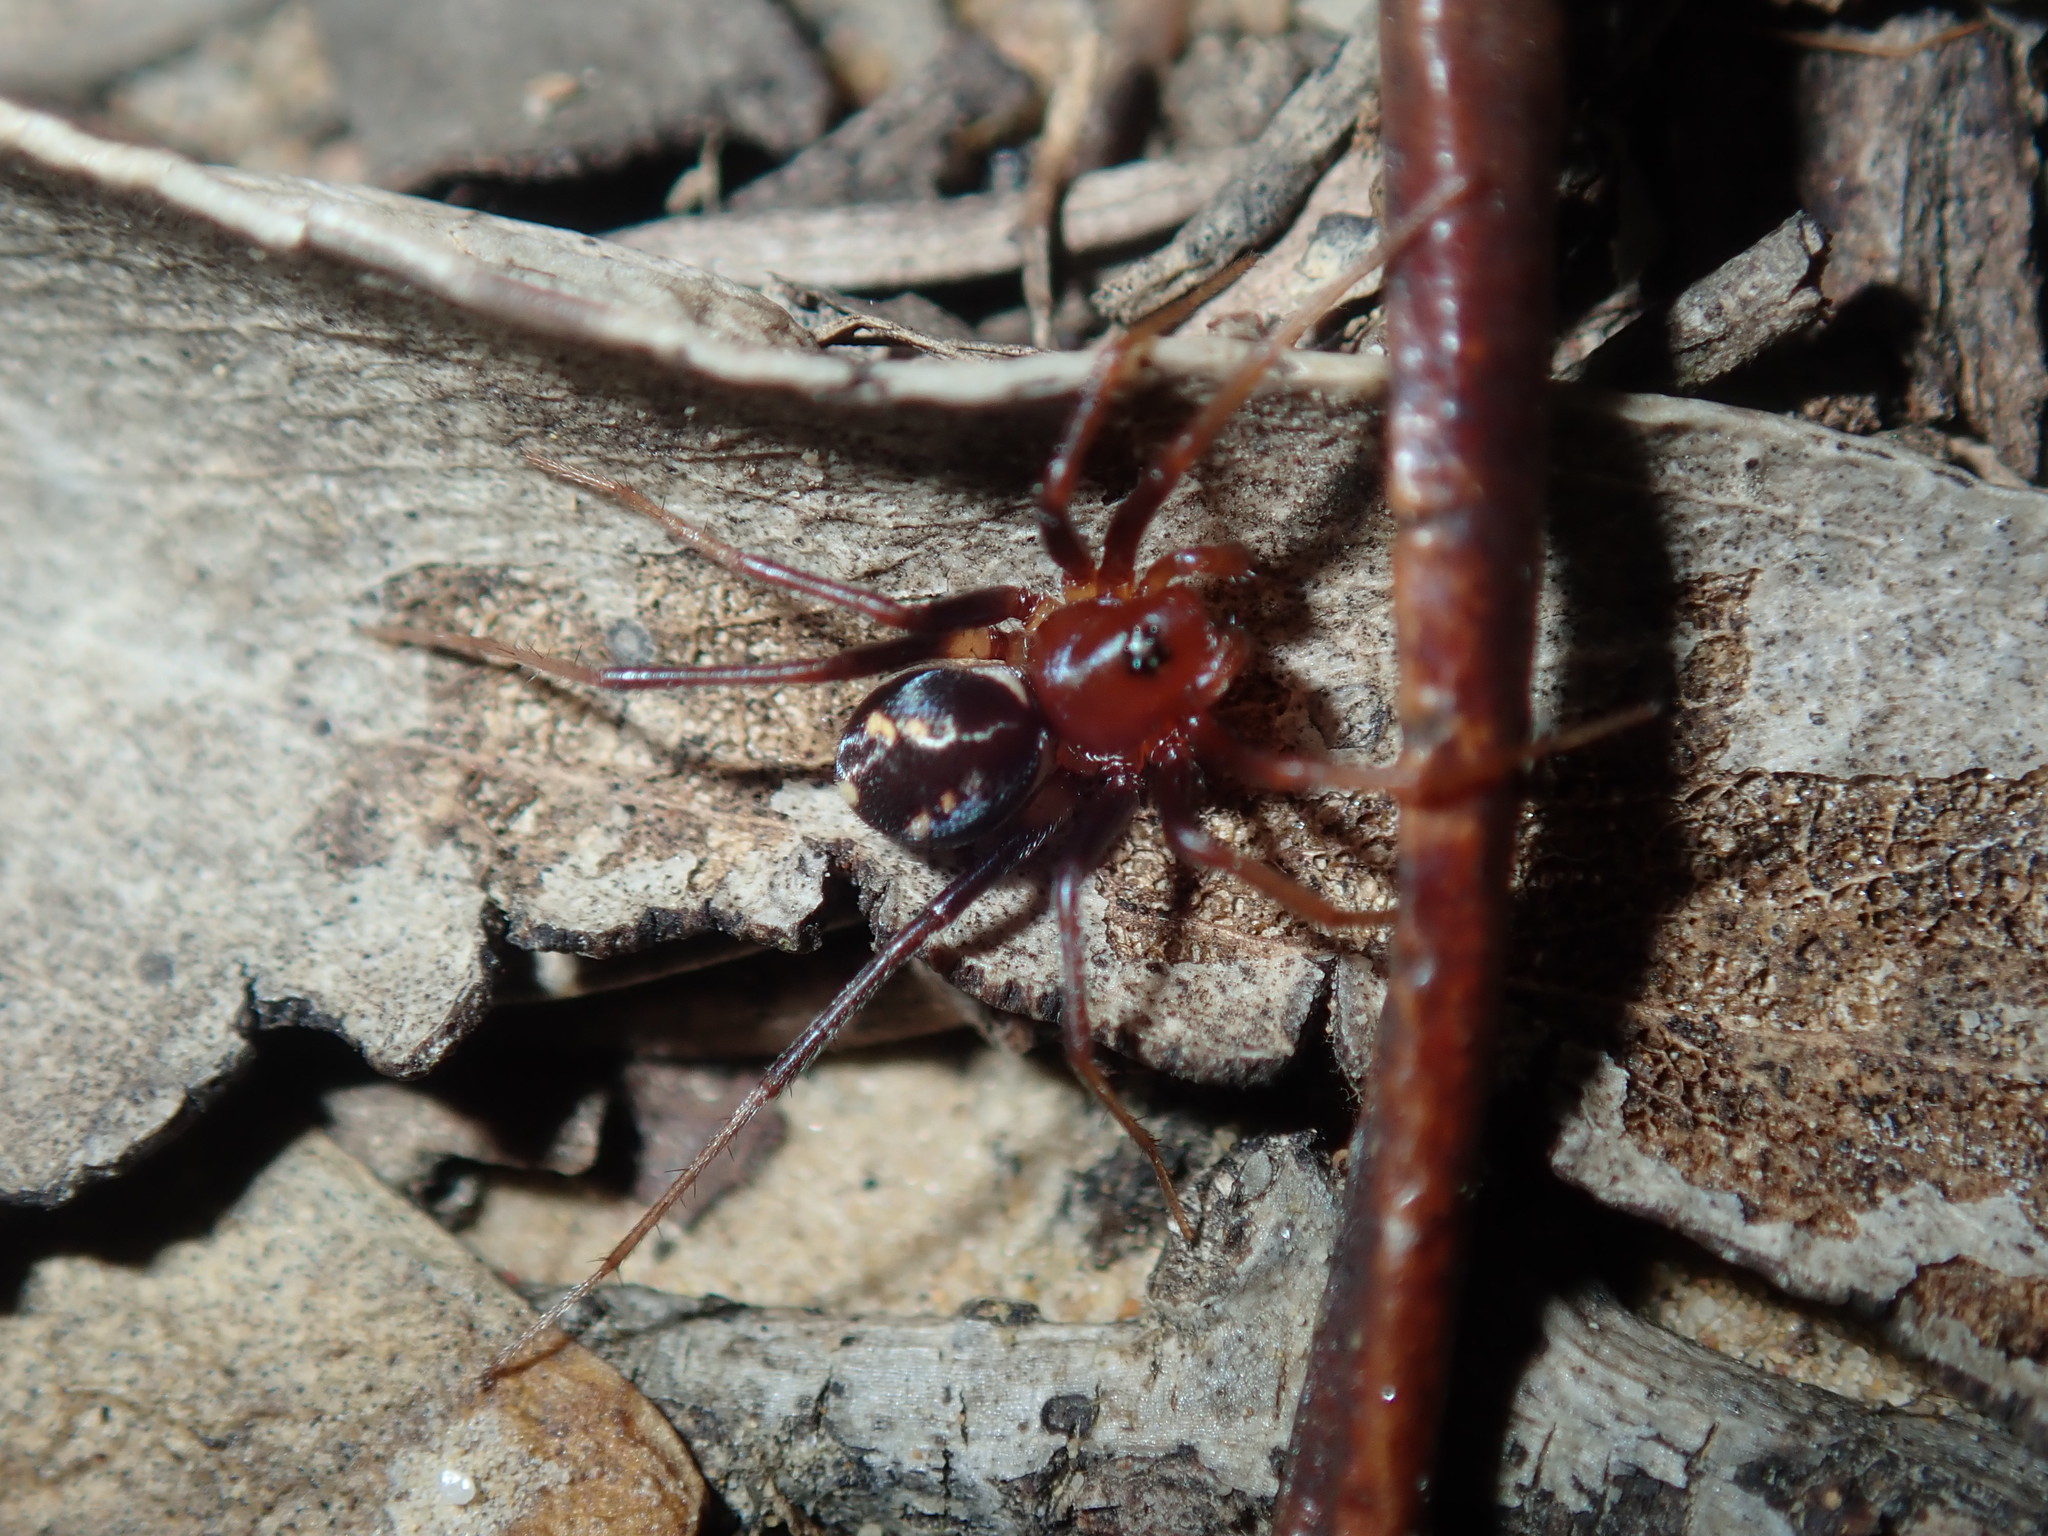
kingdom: Animalia
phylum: Arthropoda
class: Arachnida
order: Araneae
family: Zodariidae
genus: Habronestes
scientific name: Habronestes bradleyi
